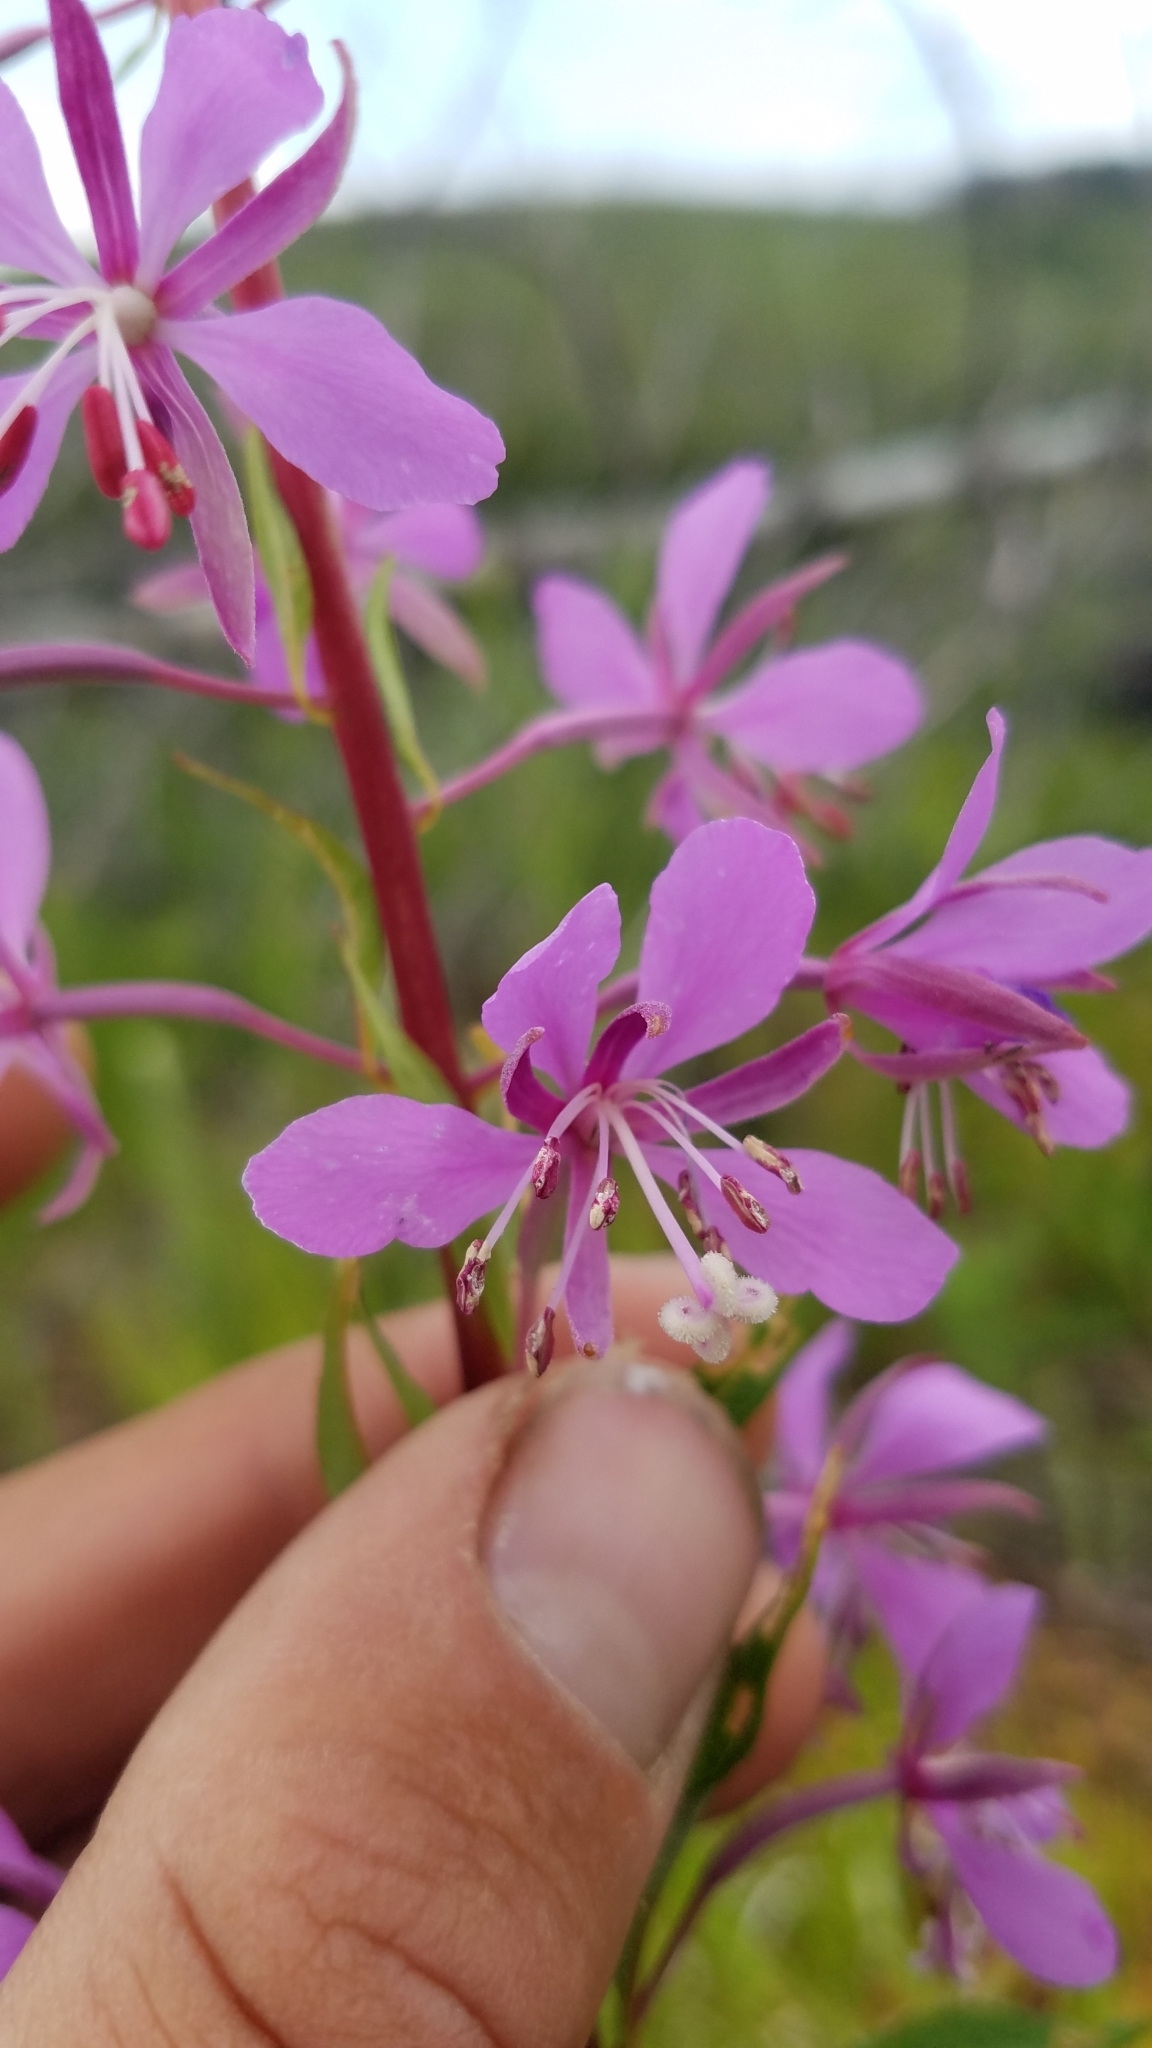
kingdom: Plantae
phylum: Tracheophyta
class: Magnoliopsida
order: Myrtales
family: Onagraceae
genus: Chamaenerion
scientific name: Chamaenerion angustifolium
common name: Fireweed
